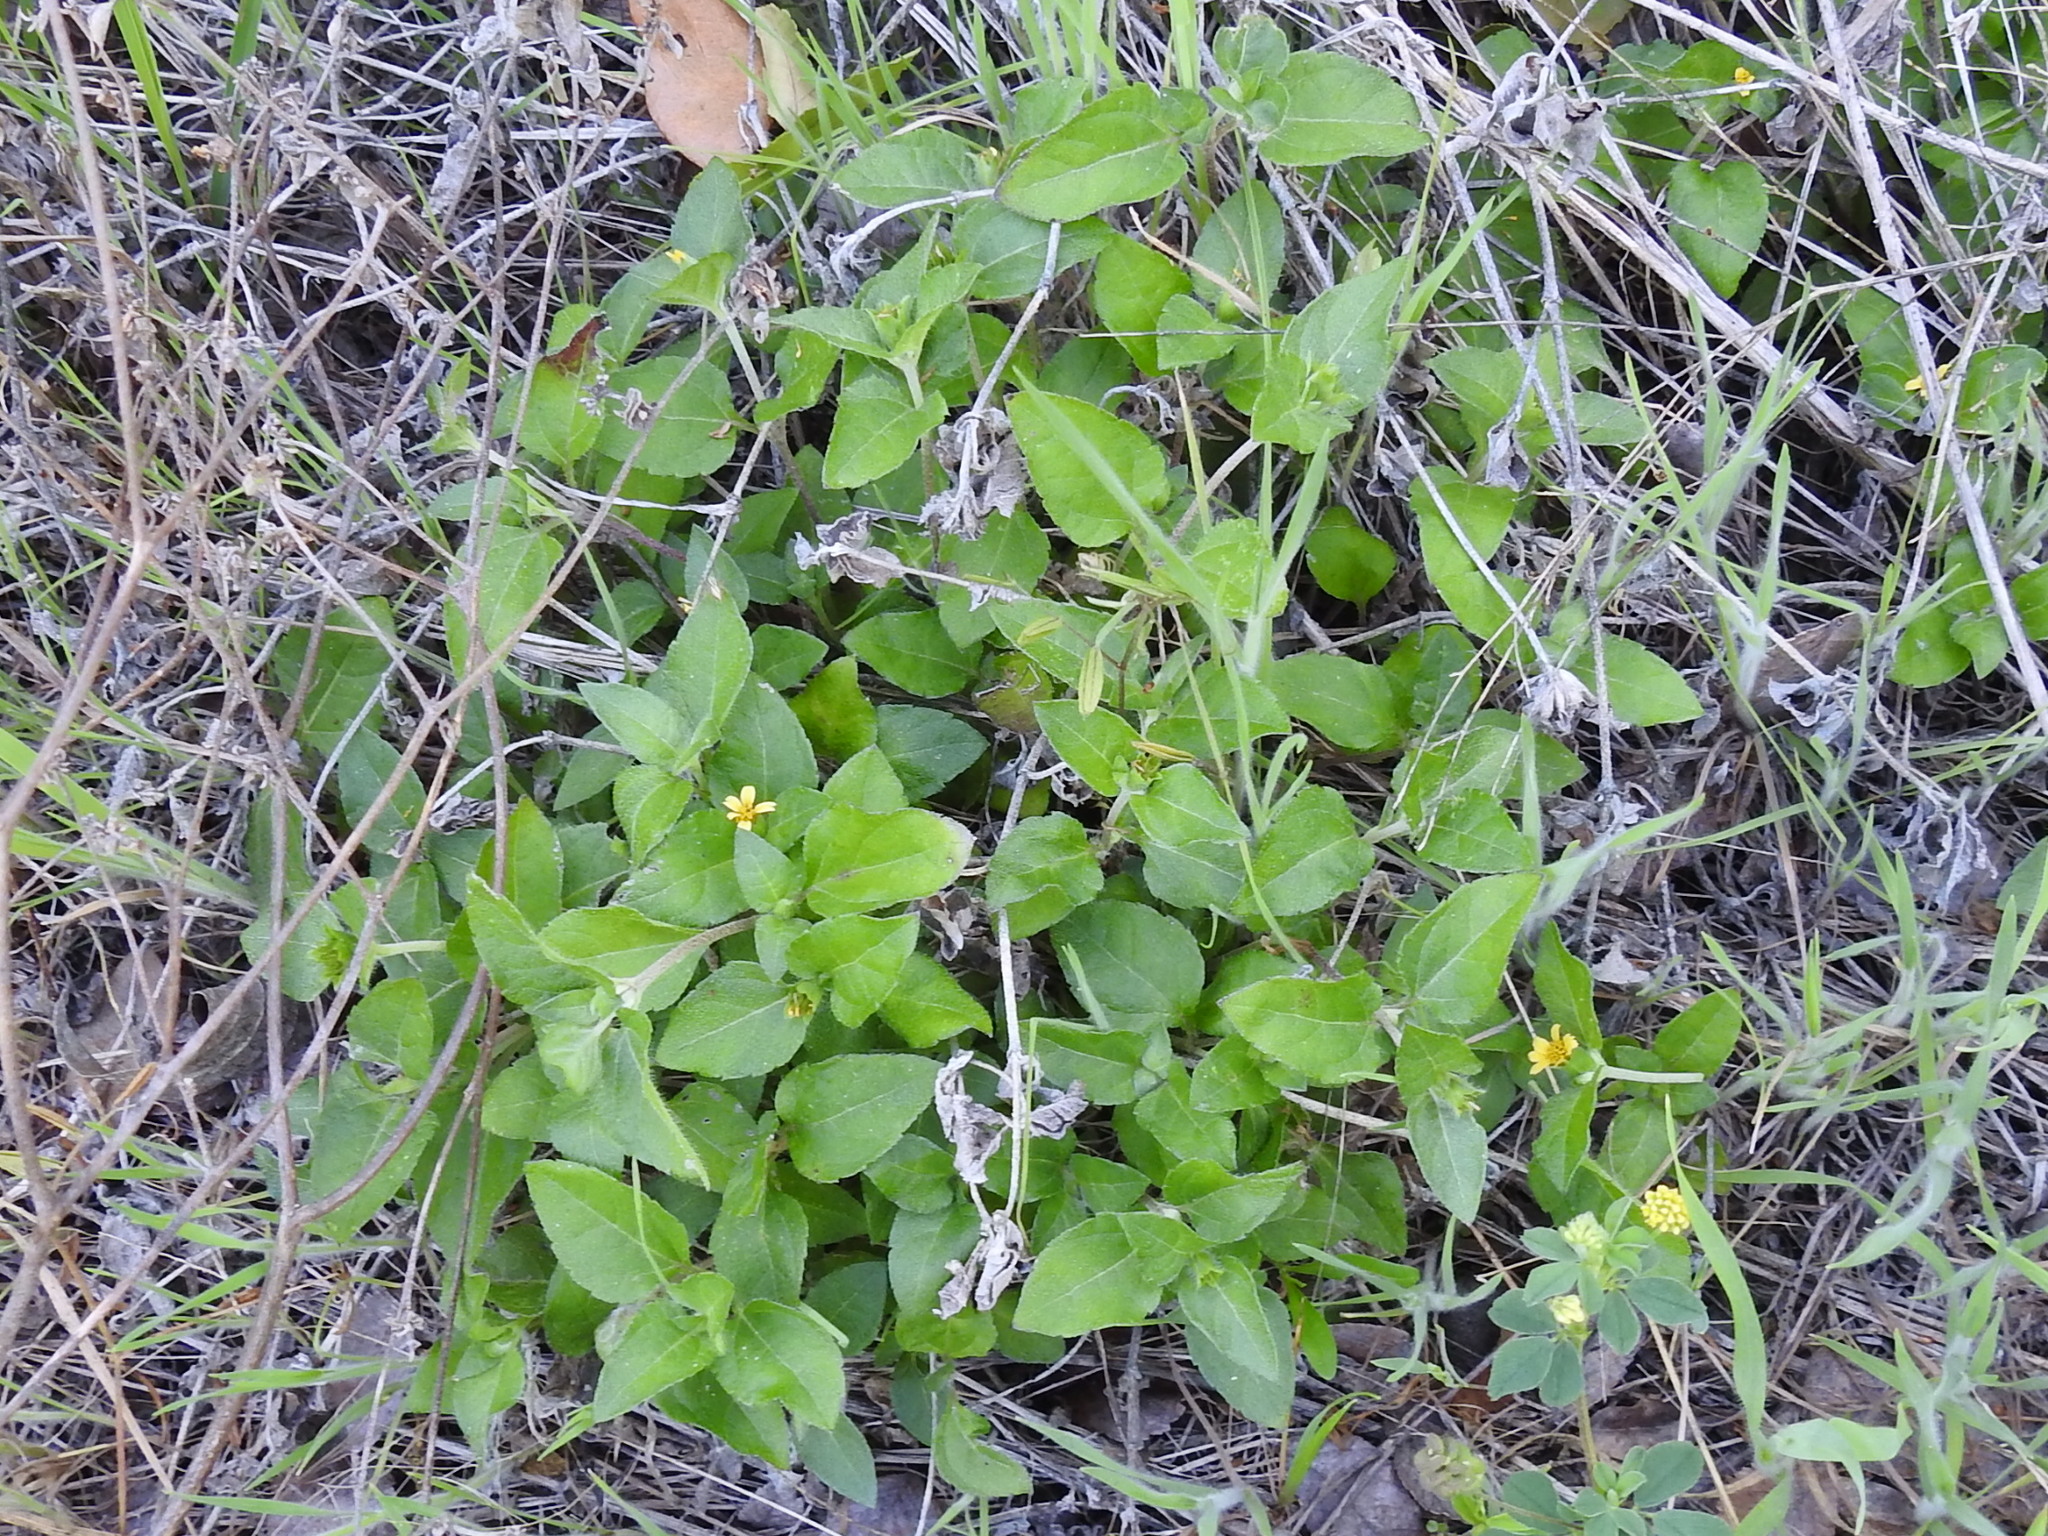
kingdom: Plantae
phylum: Tracheophyta
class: Magnoliopsida
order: Asterales
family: Asteraceae
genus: Calyptocarpus
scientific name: Calyptocarpus vialis
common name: Straggler daisy
